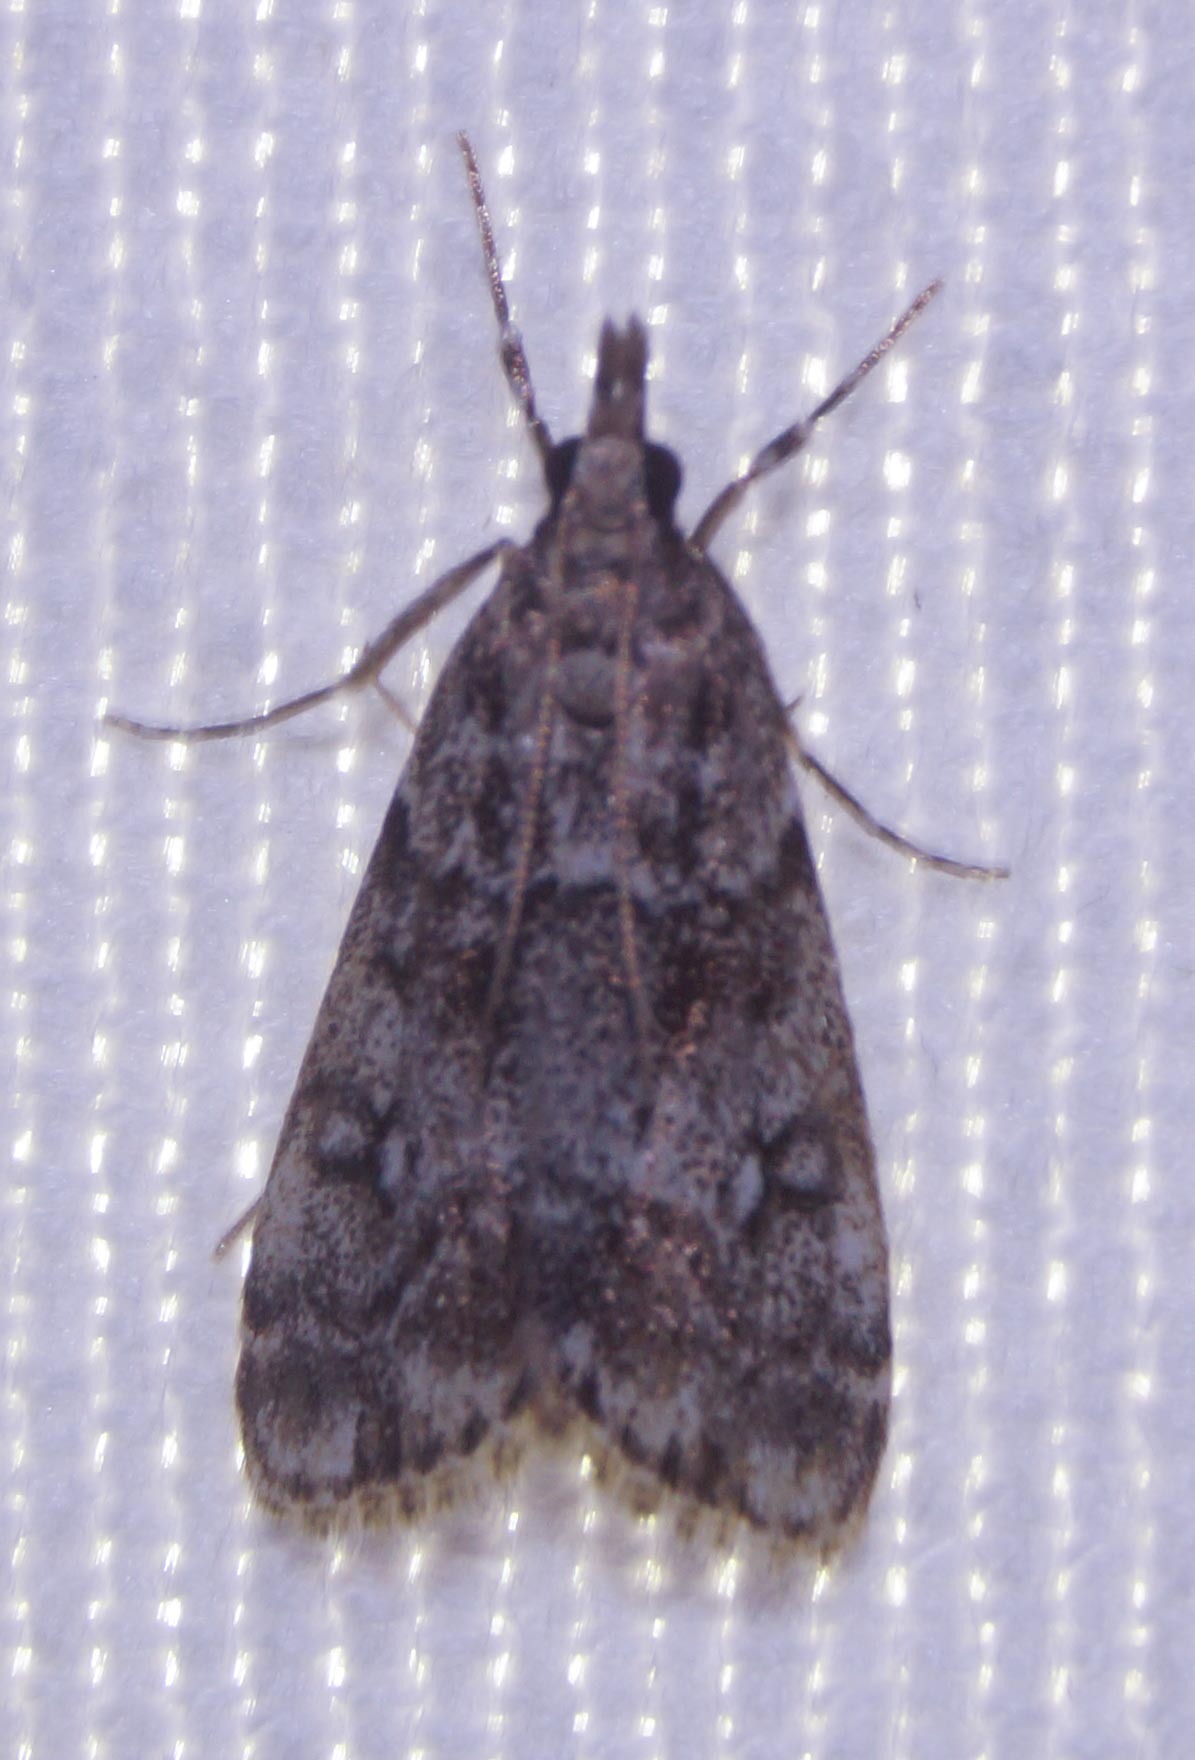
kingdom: Animalia
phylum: Arthropoda
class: Insecta
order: Lepidoptera
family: Crambidae
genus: Eudonia
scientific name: Eudonia lacustrata
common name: Little grey
